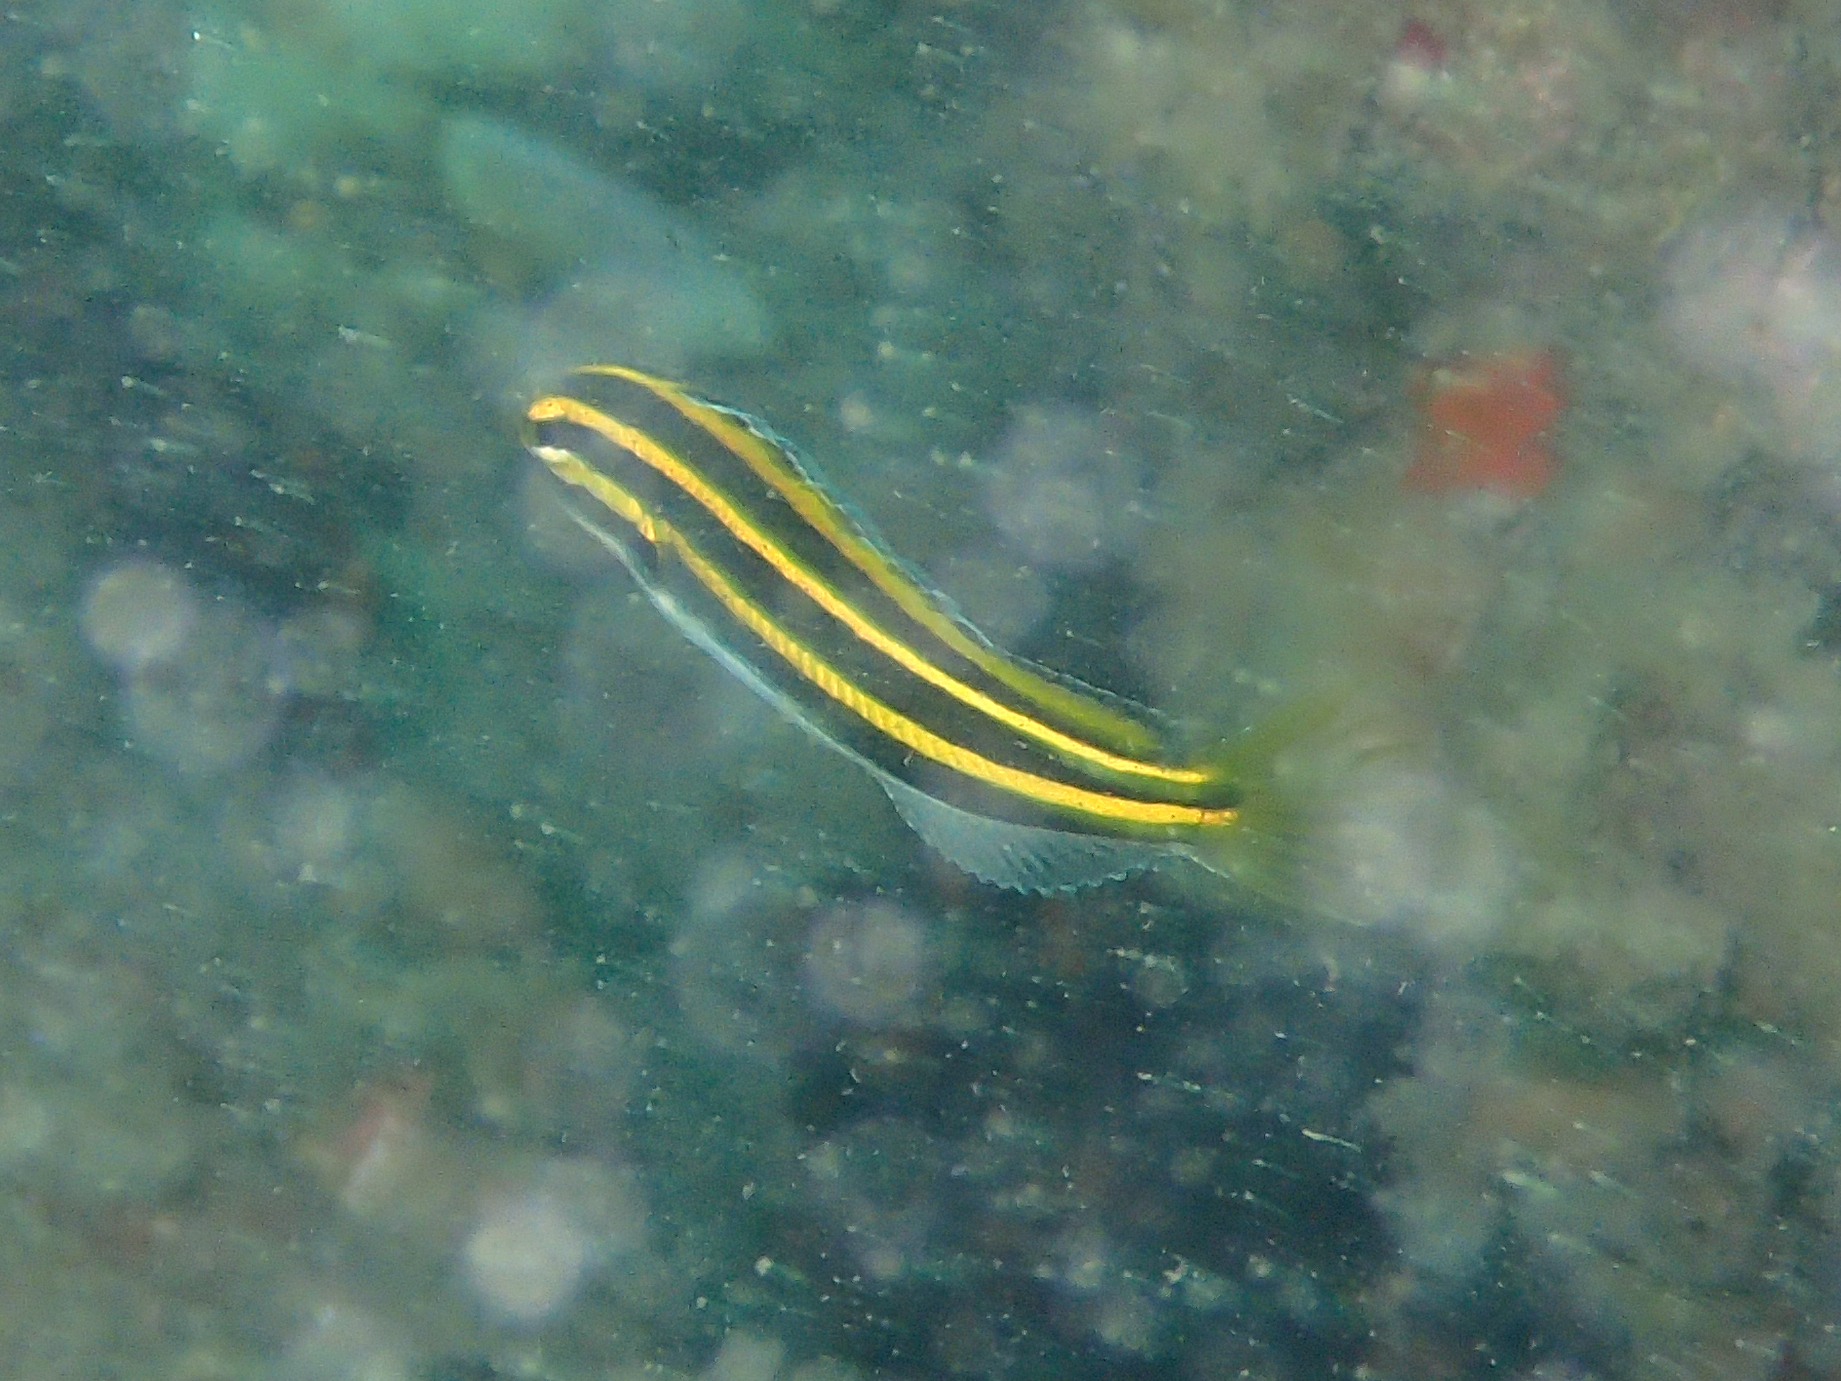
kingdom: Animalia
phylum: Chordata
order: Perciformes
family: Blenniidae
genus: Meiacanthus
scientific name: Meiacanthus lineatus
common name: Lined fangblenny
